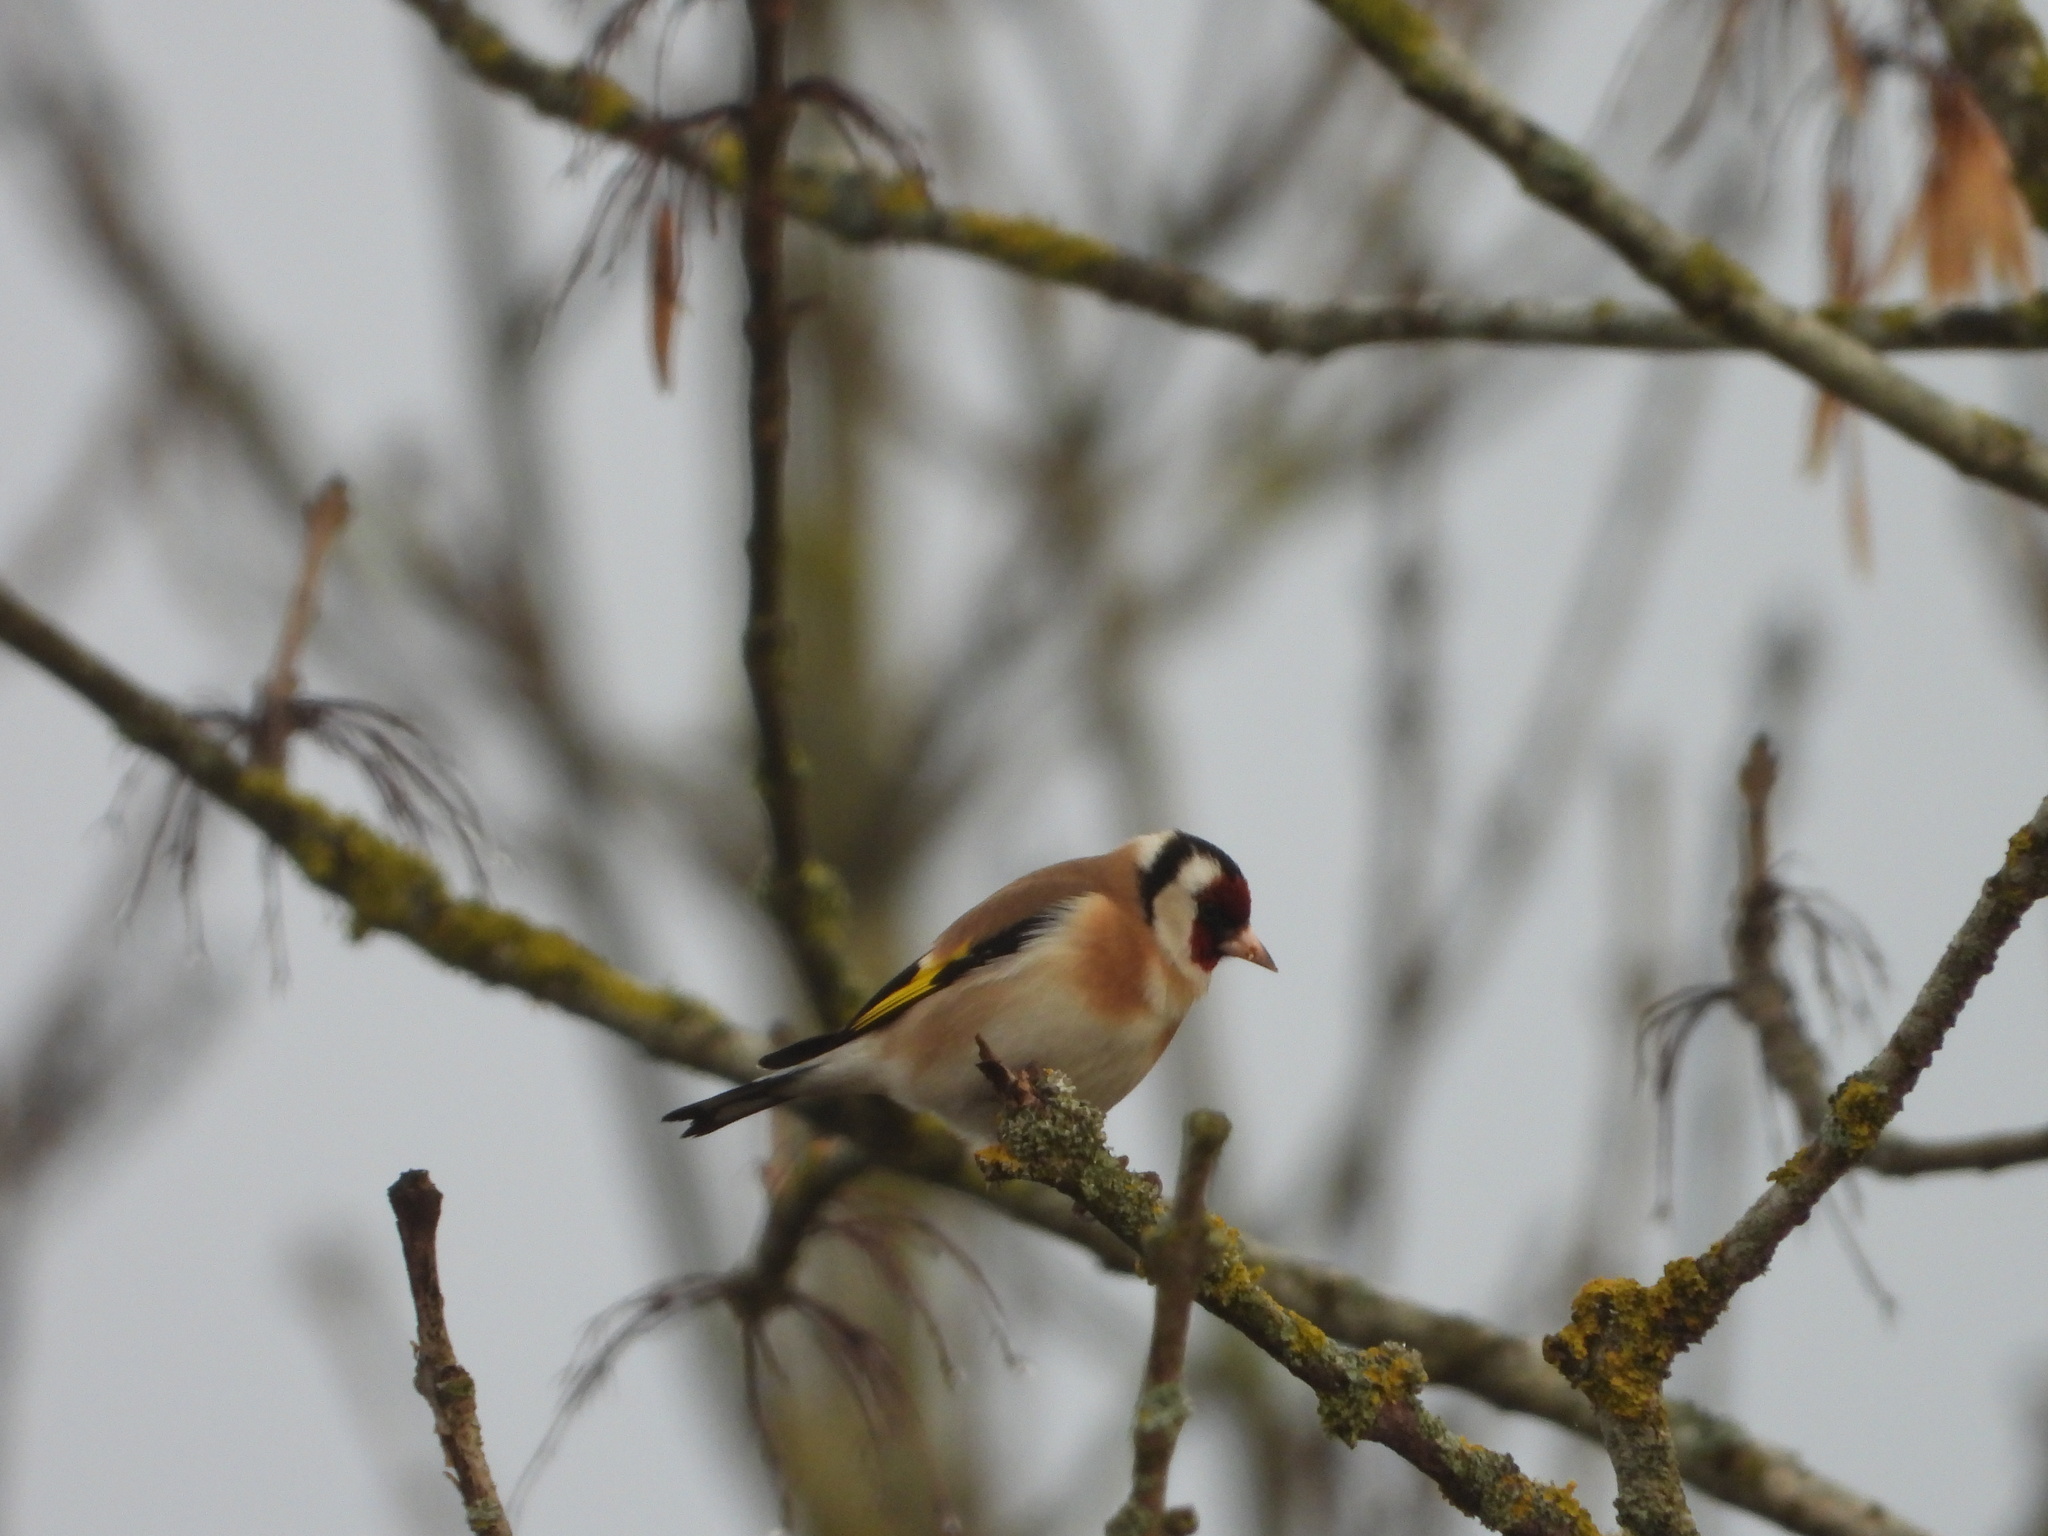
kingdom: Animalia
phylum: Chordata
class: Aves
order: Passeriformes
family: Fringillidae
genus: Carduelis
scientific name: Carduelis carduelis
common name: European goldfinch
